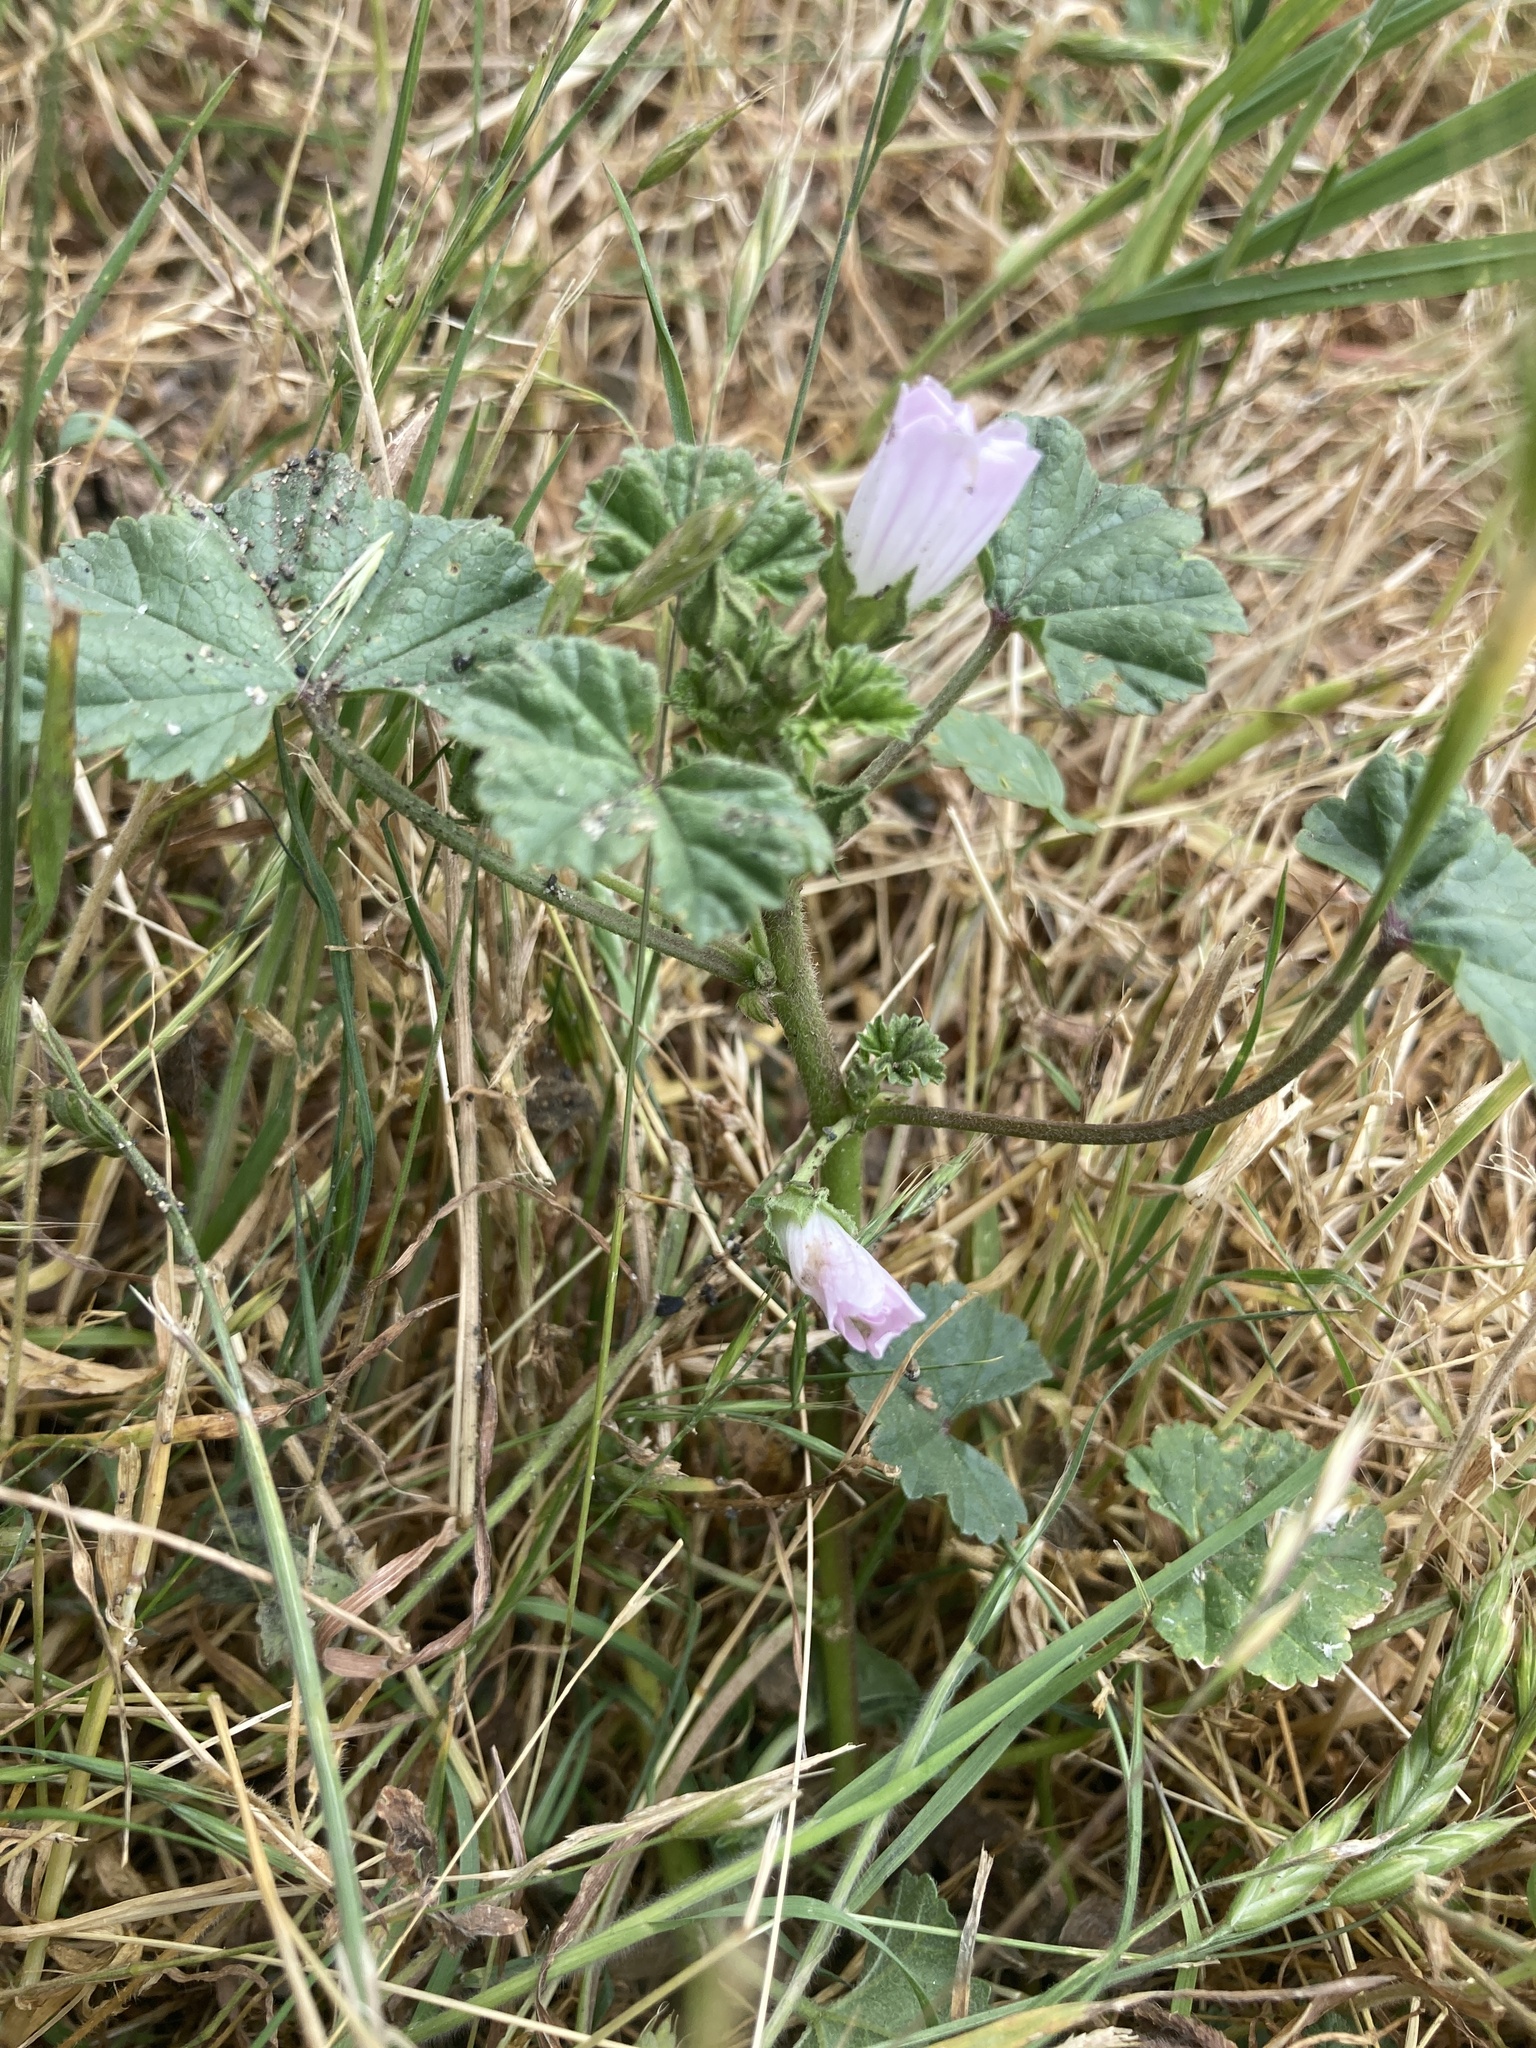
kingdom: Plantae
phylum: Tracheophyta
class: Magnoliopsida
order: Malvales
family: Malvaceae
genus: Malva
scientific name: Malva neglecta
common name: Common mallow
